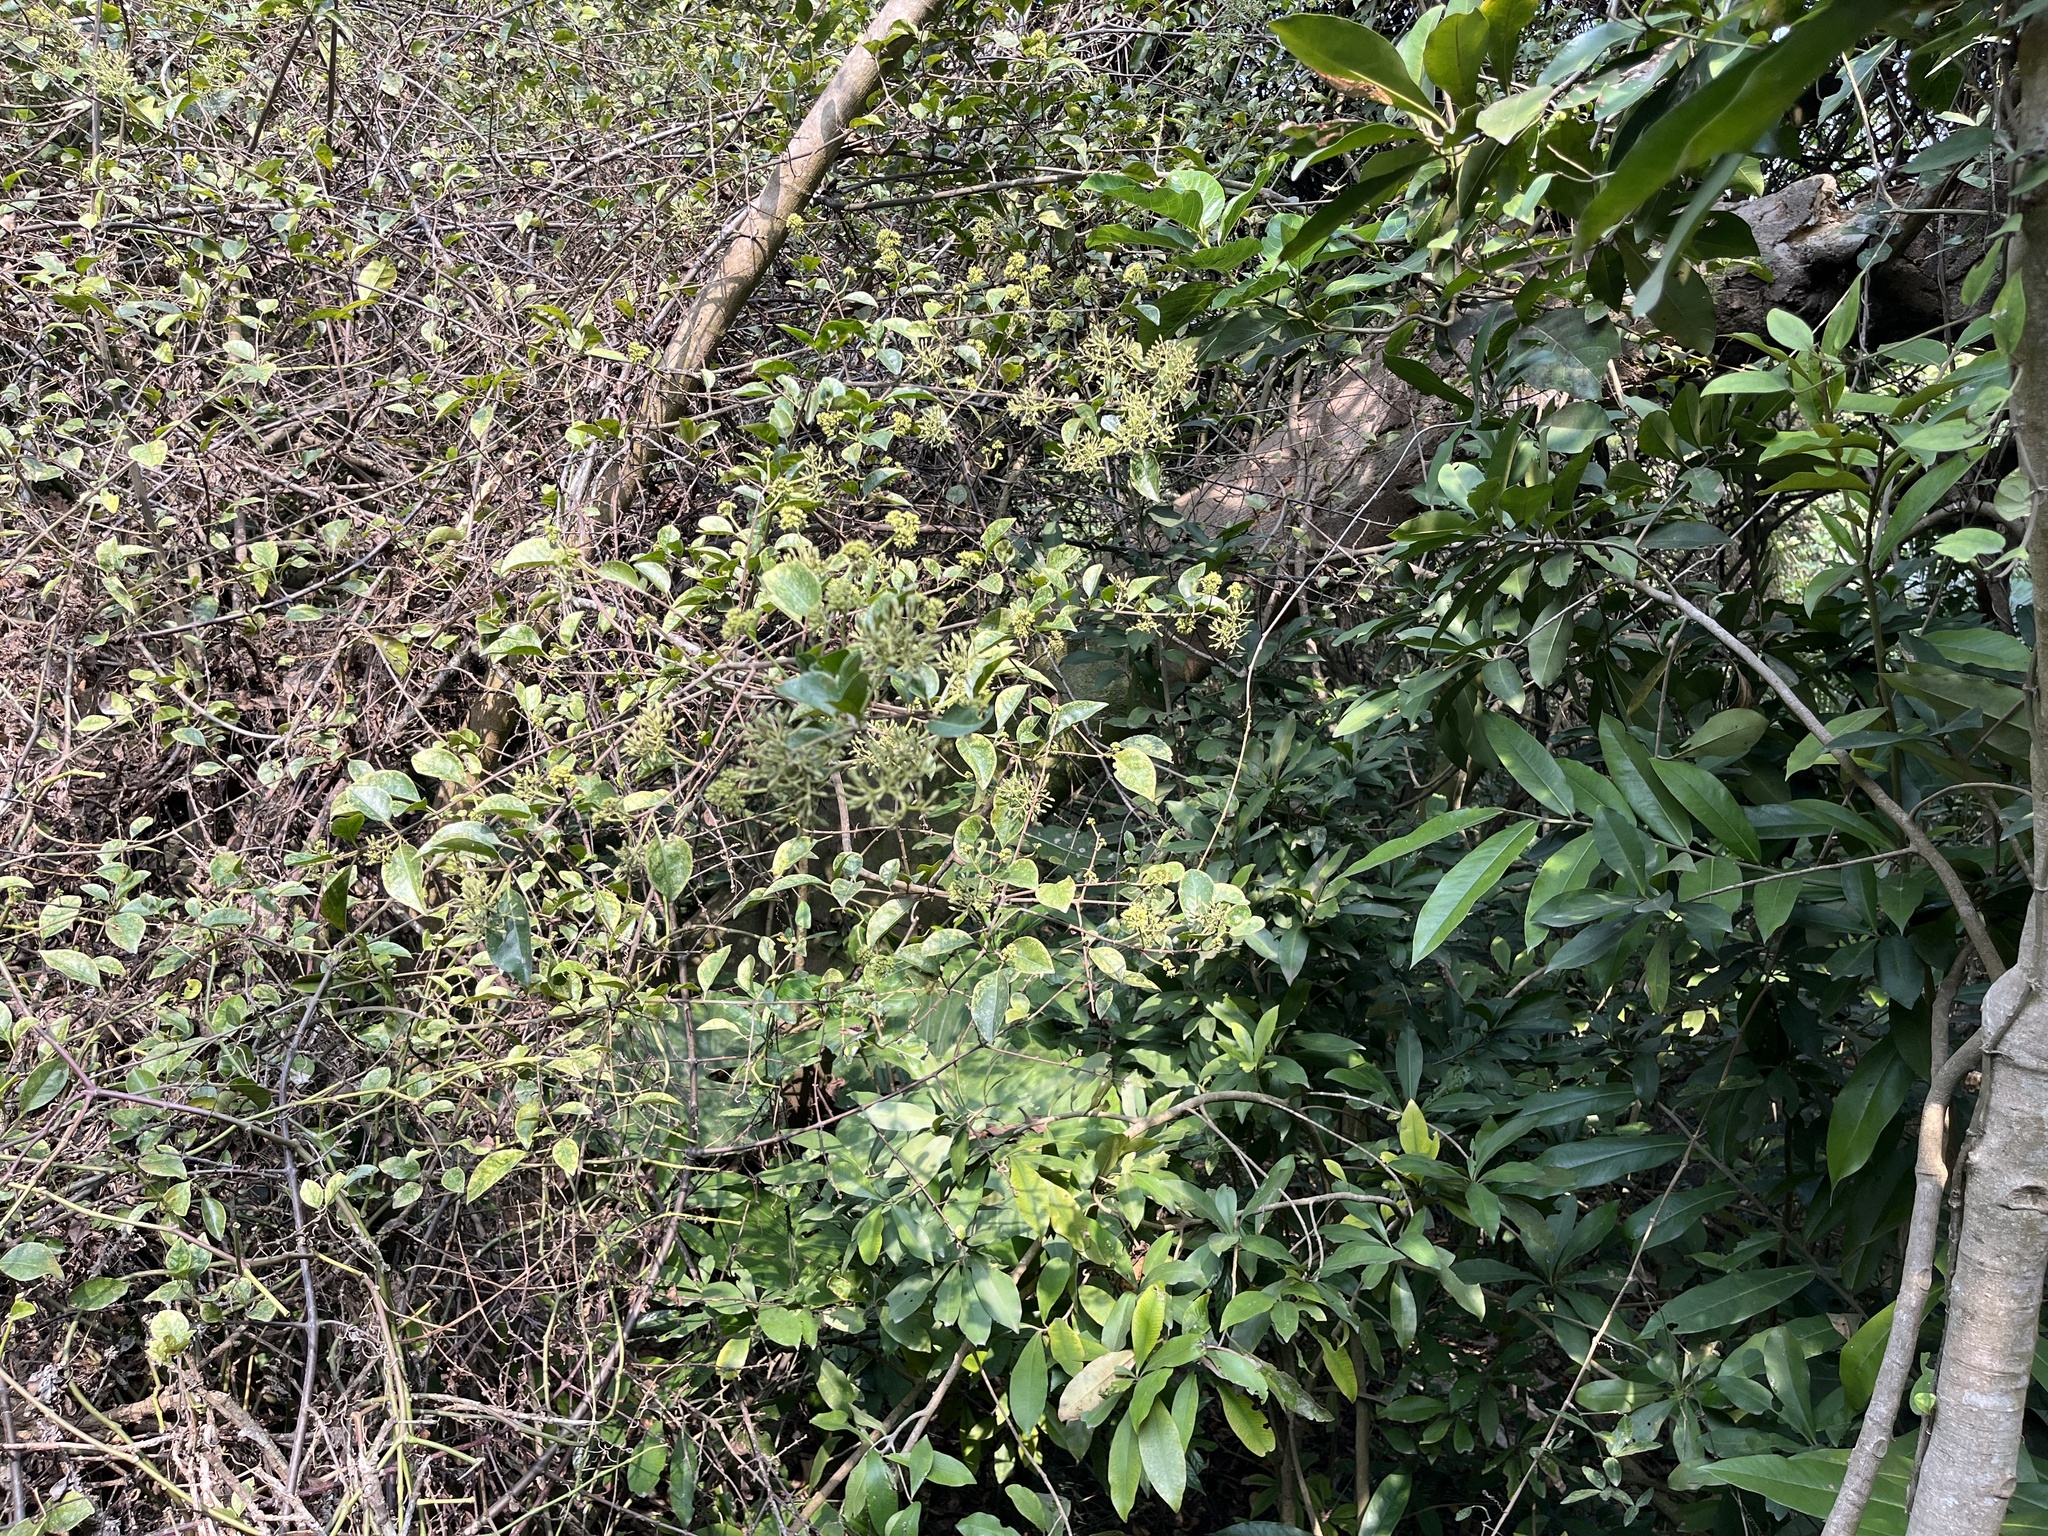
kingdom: Plantae
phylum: Tracheophyta
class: Magnoliopsida
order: Caryophyllales
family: Nyctaginaceae
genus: Pisonia
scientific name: Pisonia aculeata
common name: Cockspur vine
